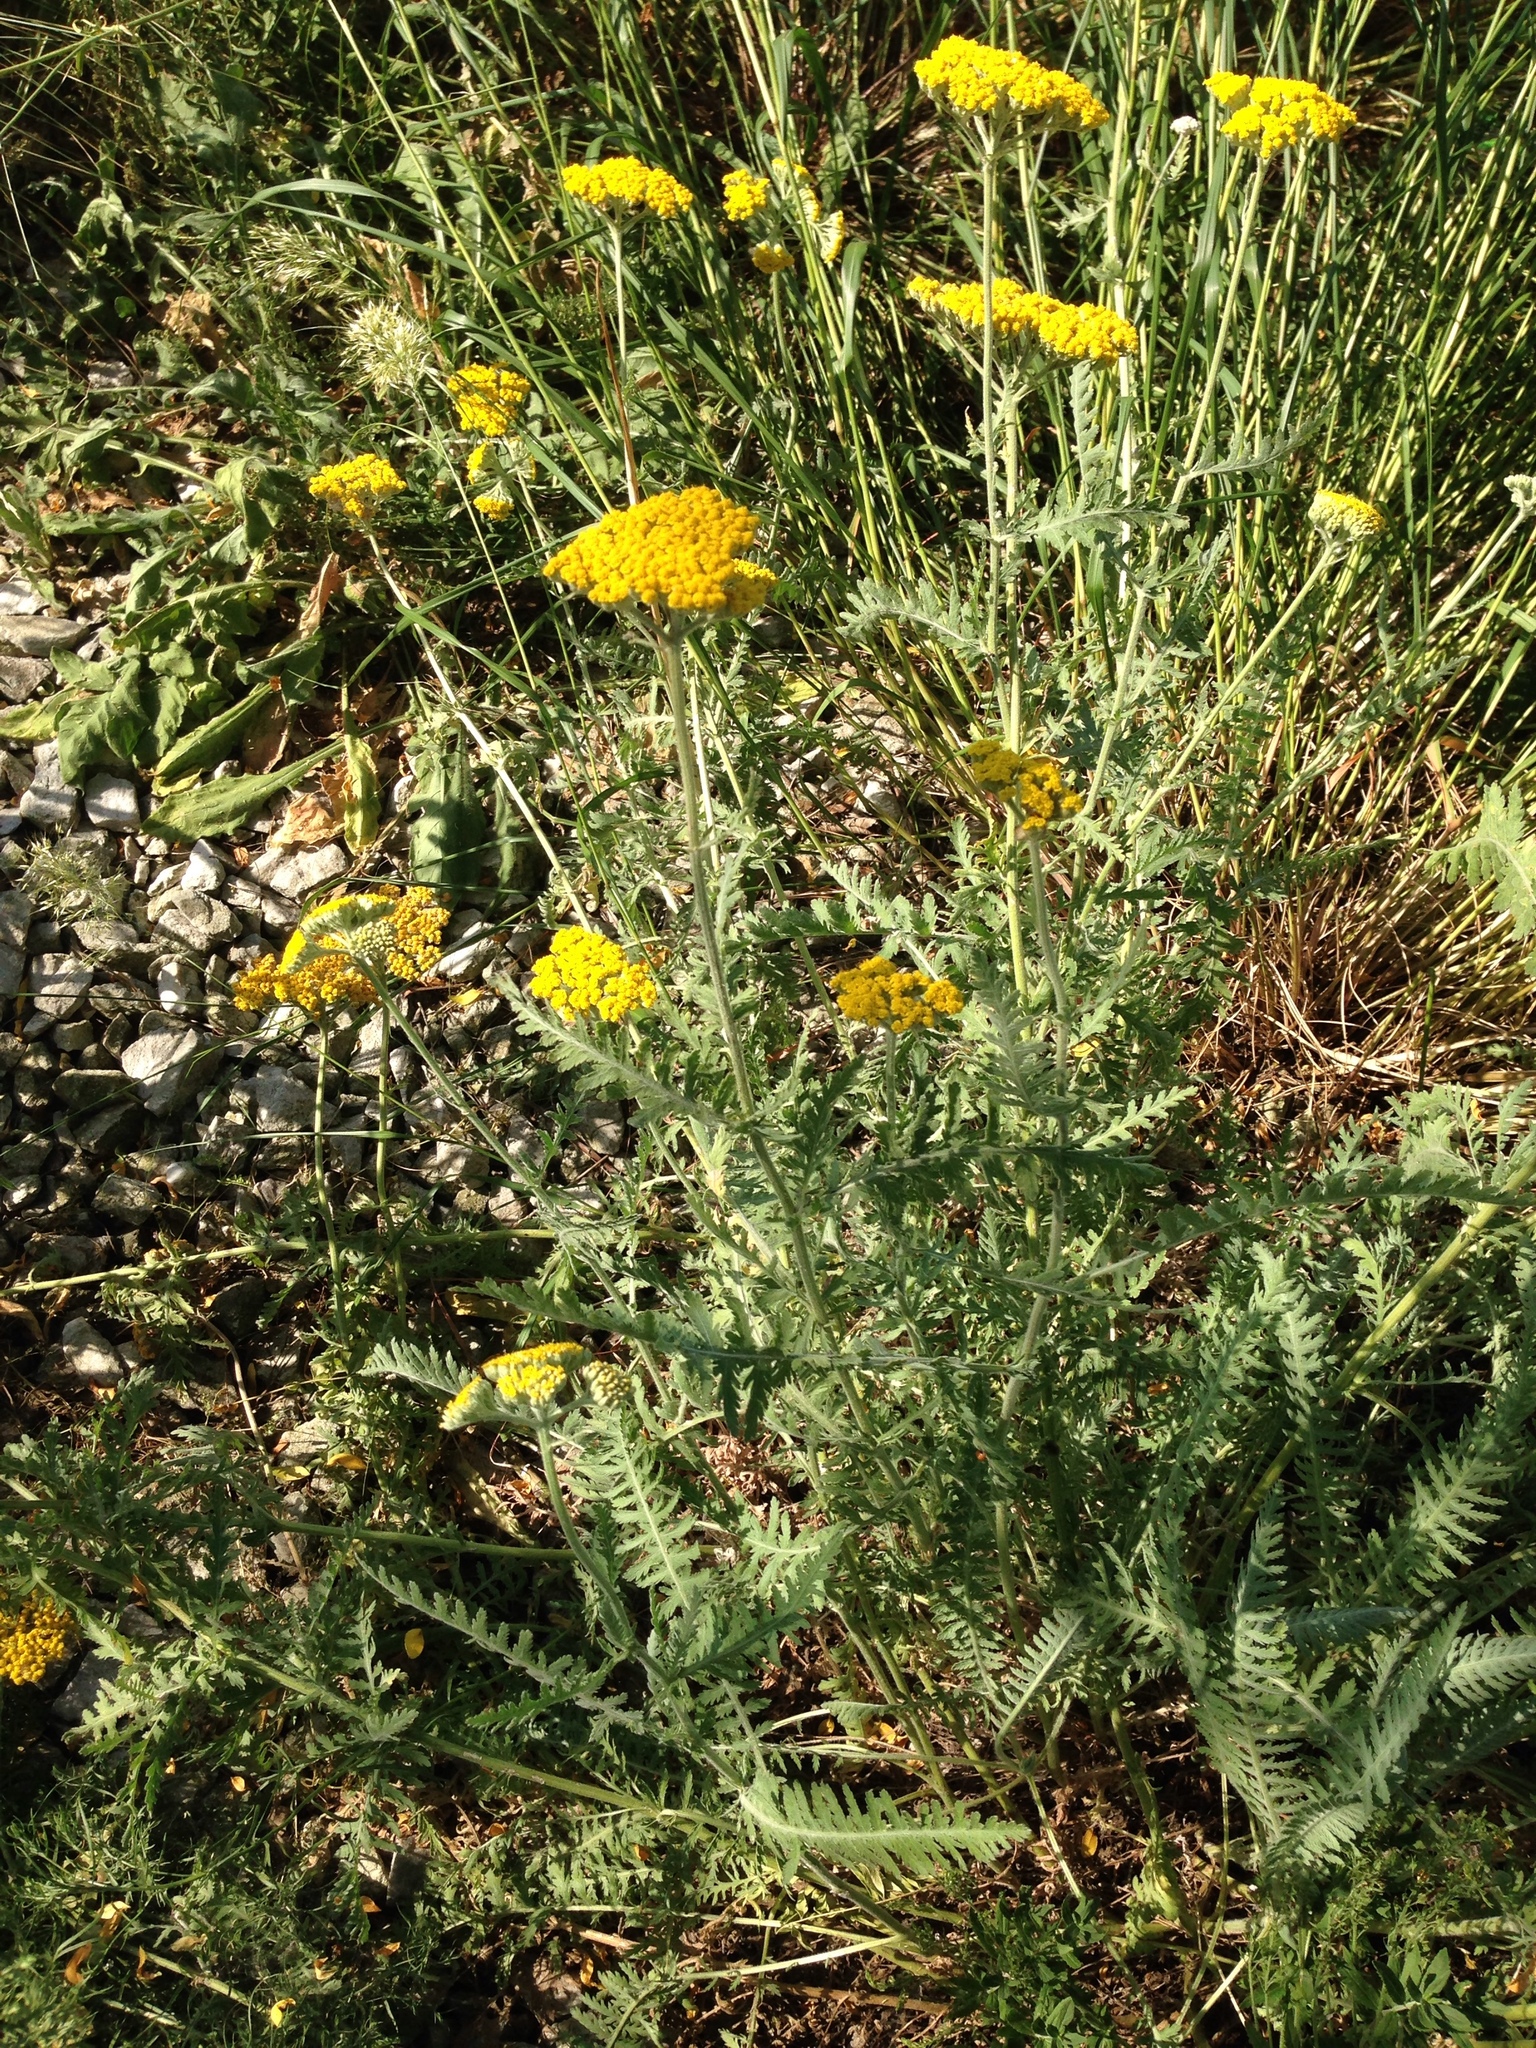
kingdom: Plantae
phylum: Tracheophyta
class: Magnoliopsida
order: Asterales
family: Asteraceae
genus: Achillea
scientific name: Achillea filipendulina
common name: Fernleaf yarrow
